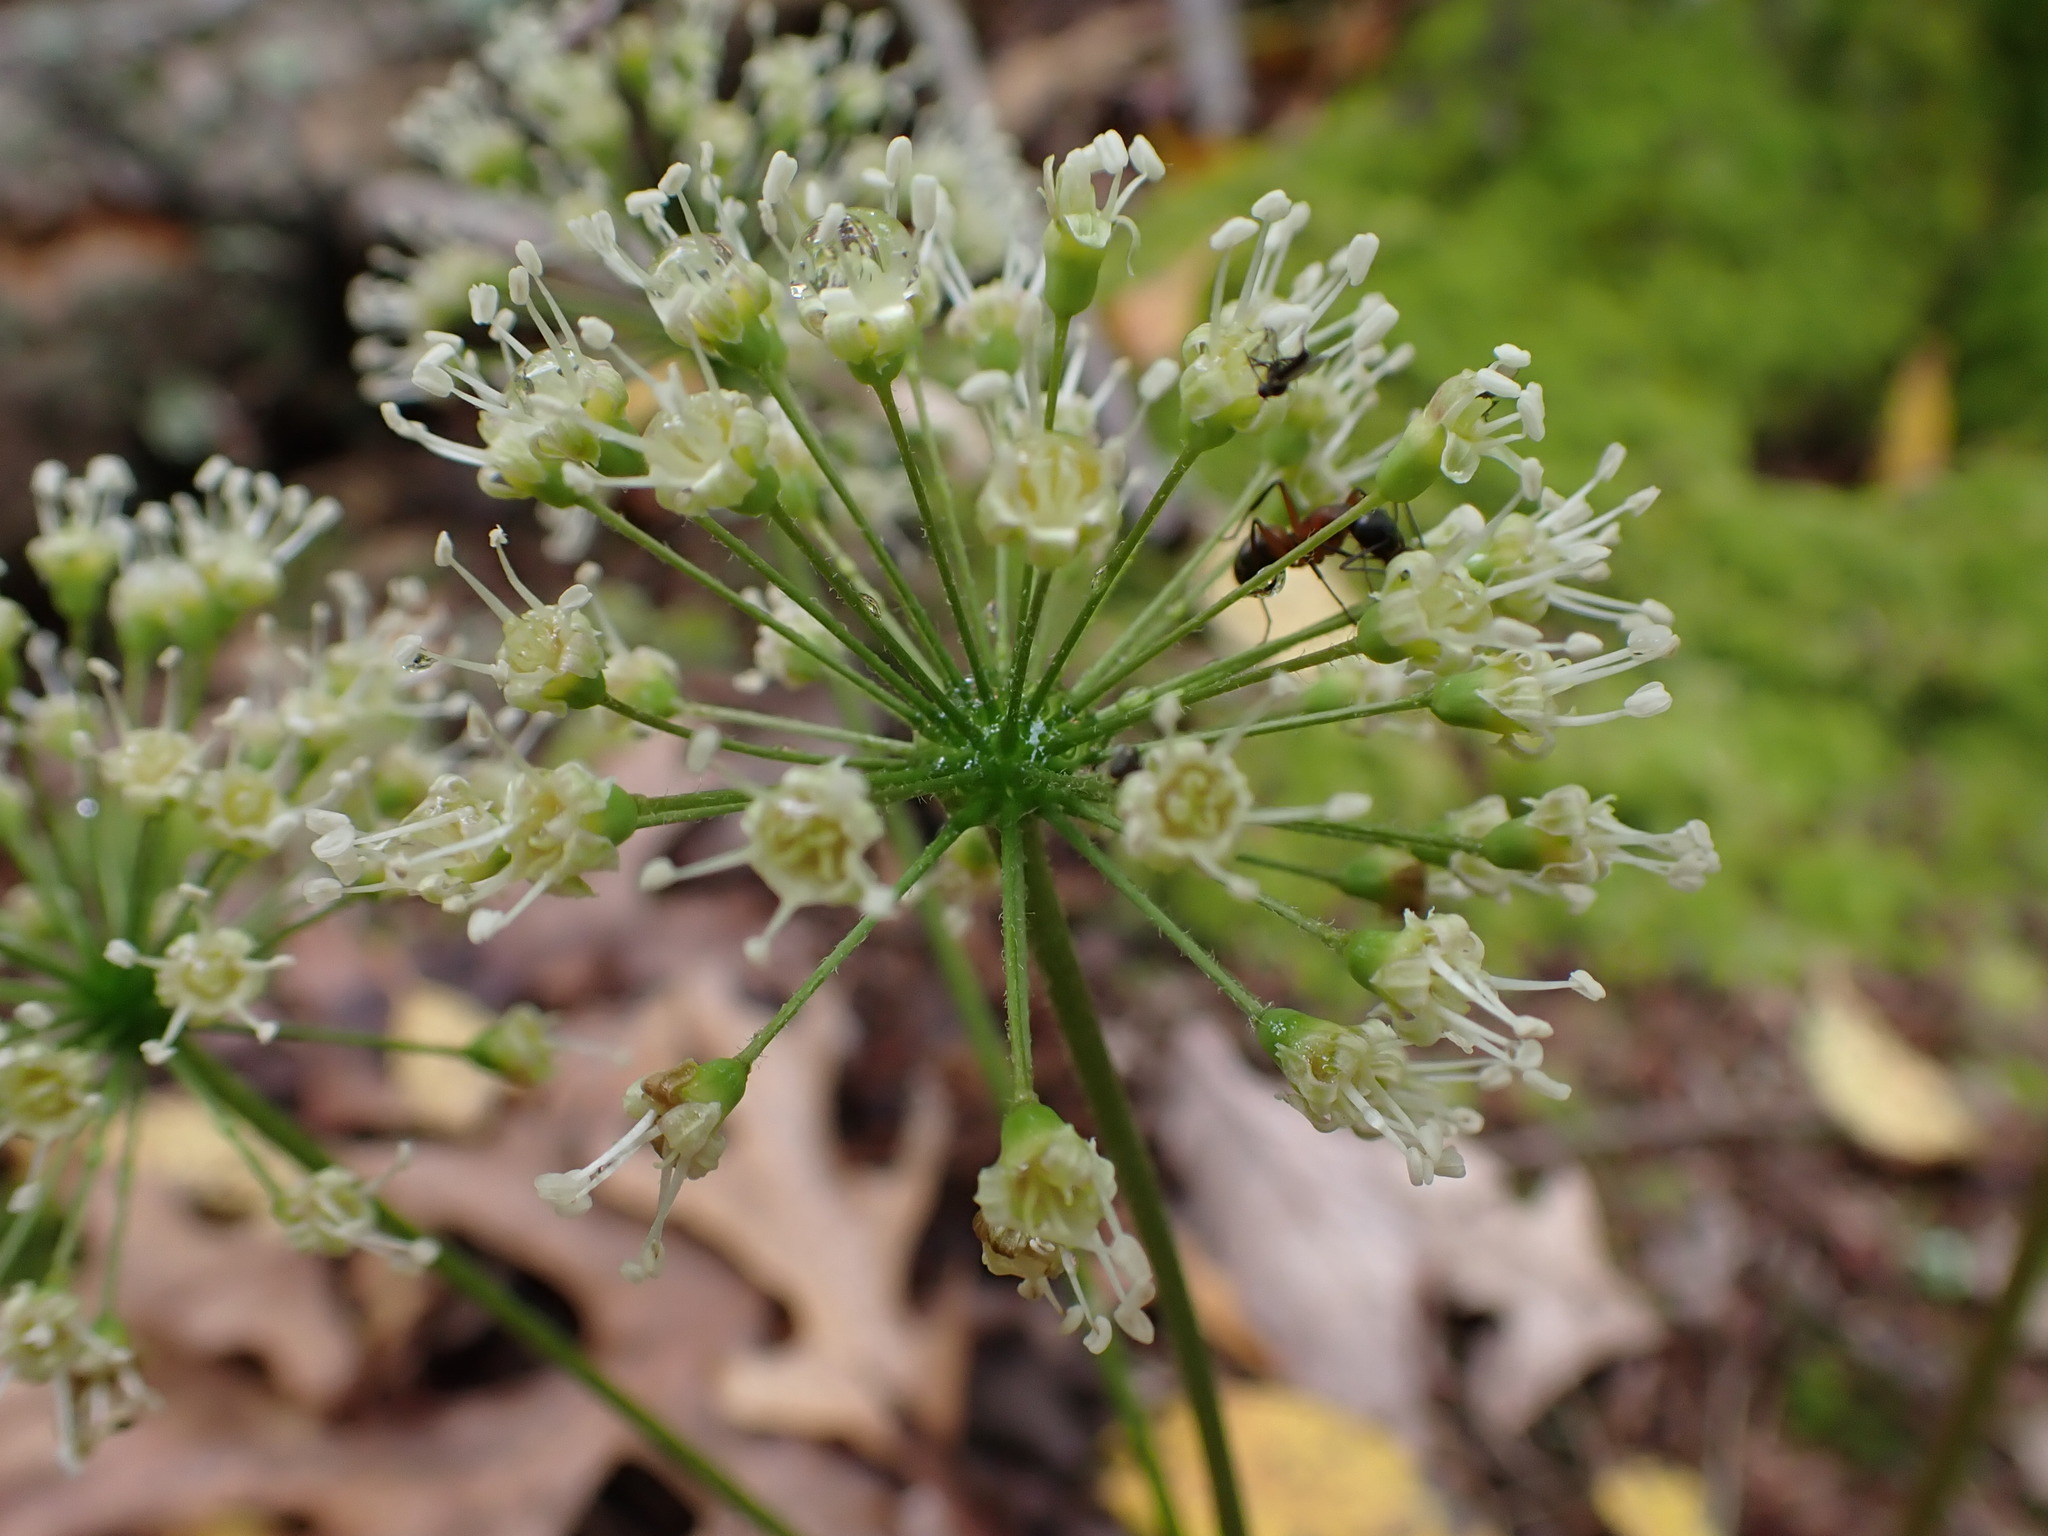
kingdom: Plantae
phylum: Tracheophyta
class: Magnoliopsida
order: Apiales
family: Araliaceae
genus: Aralia
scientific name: Aralia nudicaulis
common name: Wild sarsaparilla
